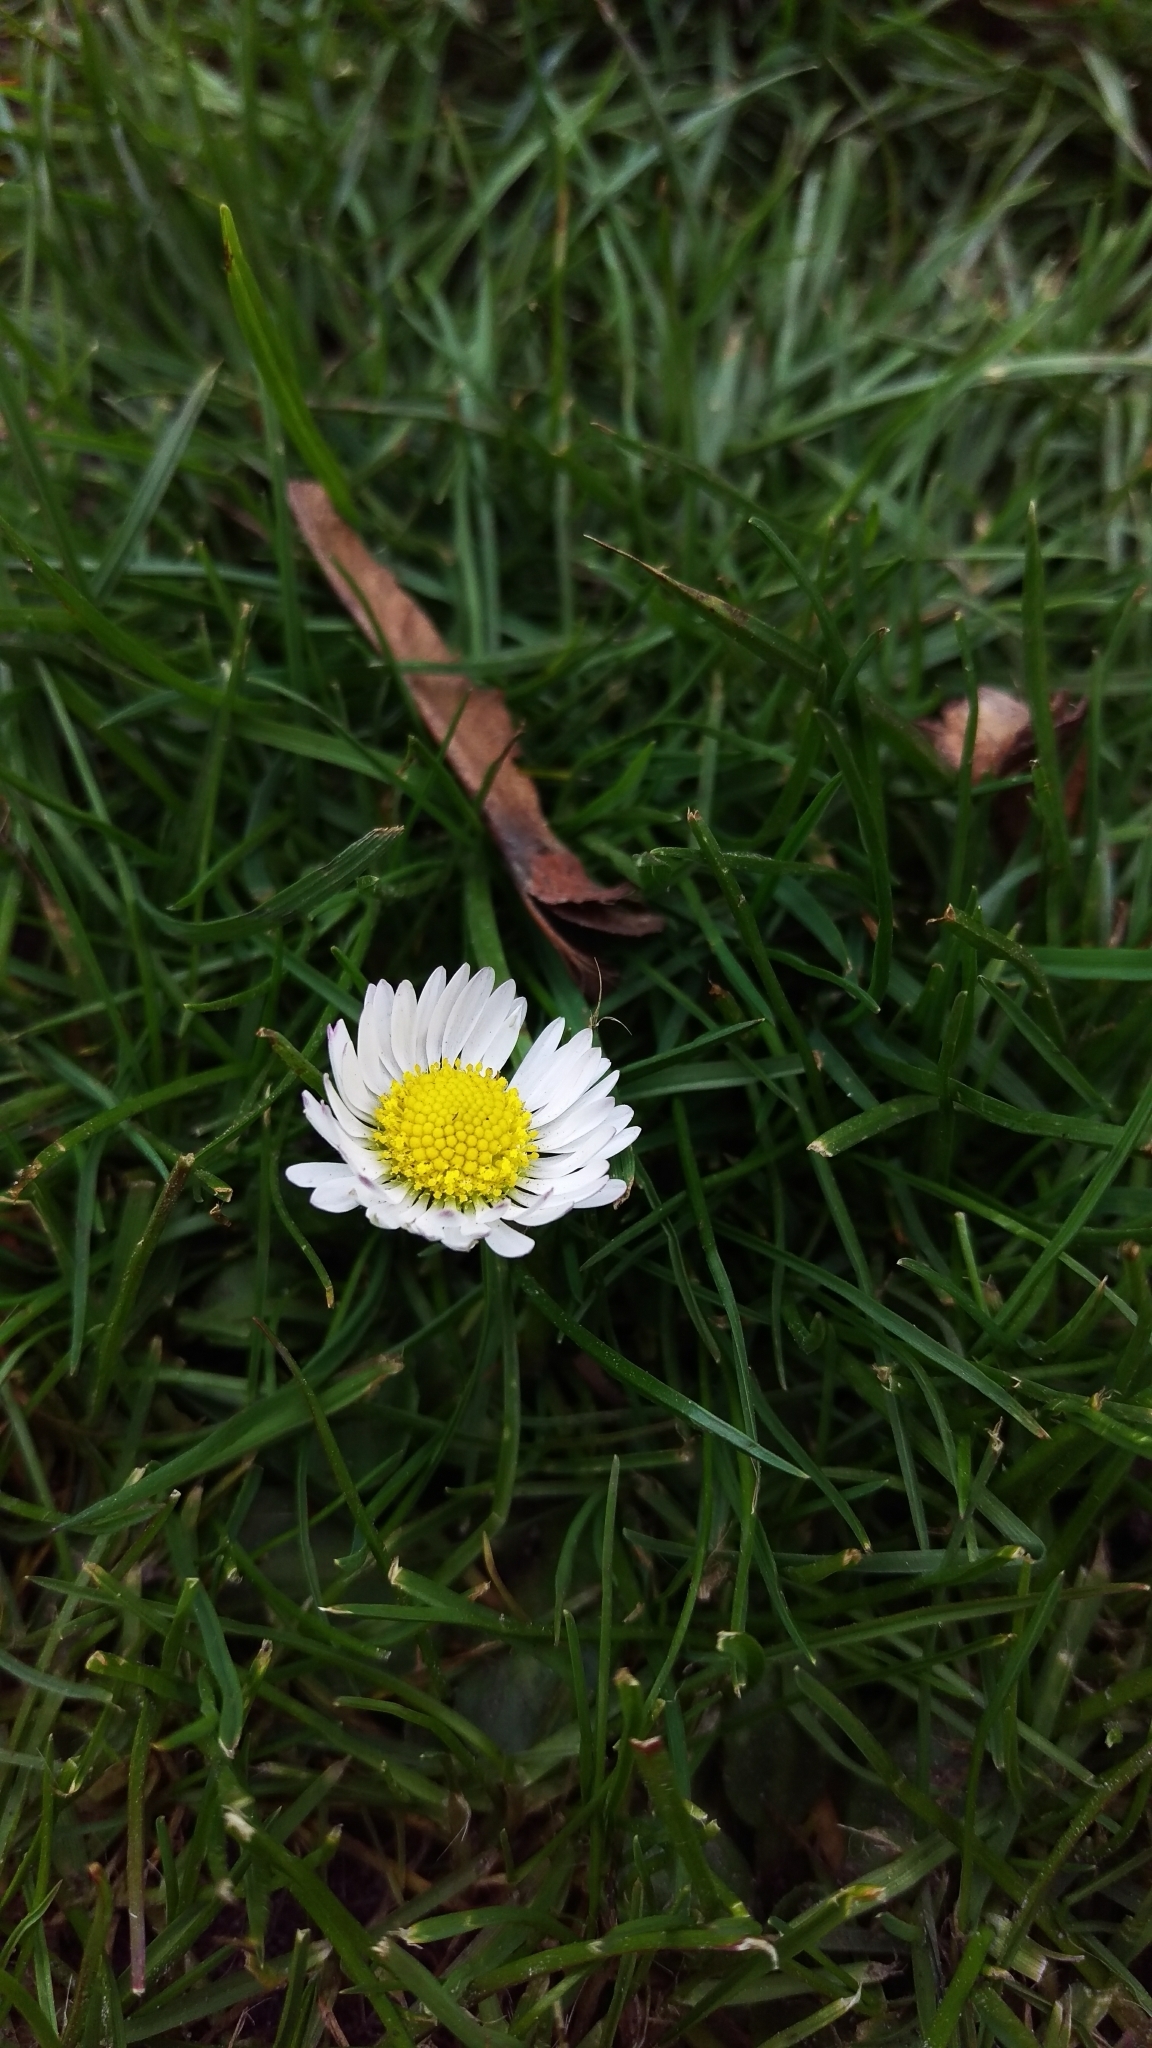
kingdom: Plantae
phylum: Tracheophyta
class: Magnoliopsida
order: Asterales
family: Asteraceae
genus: Bellis
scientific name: Bellis perennis
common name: Lawndaisy
